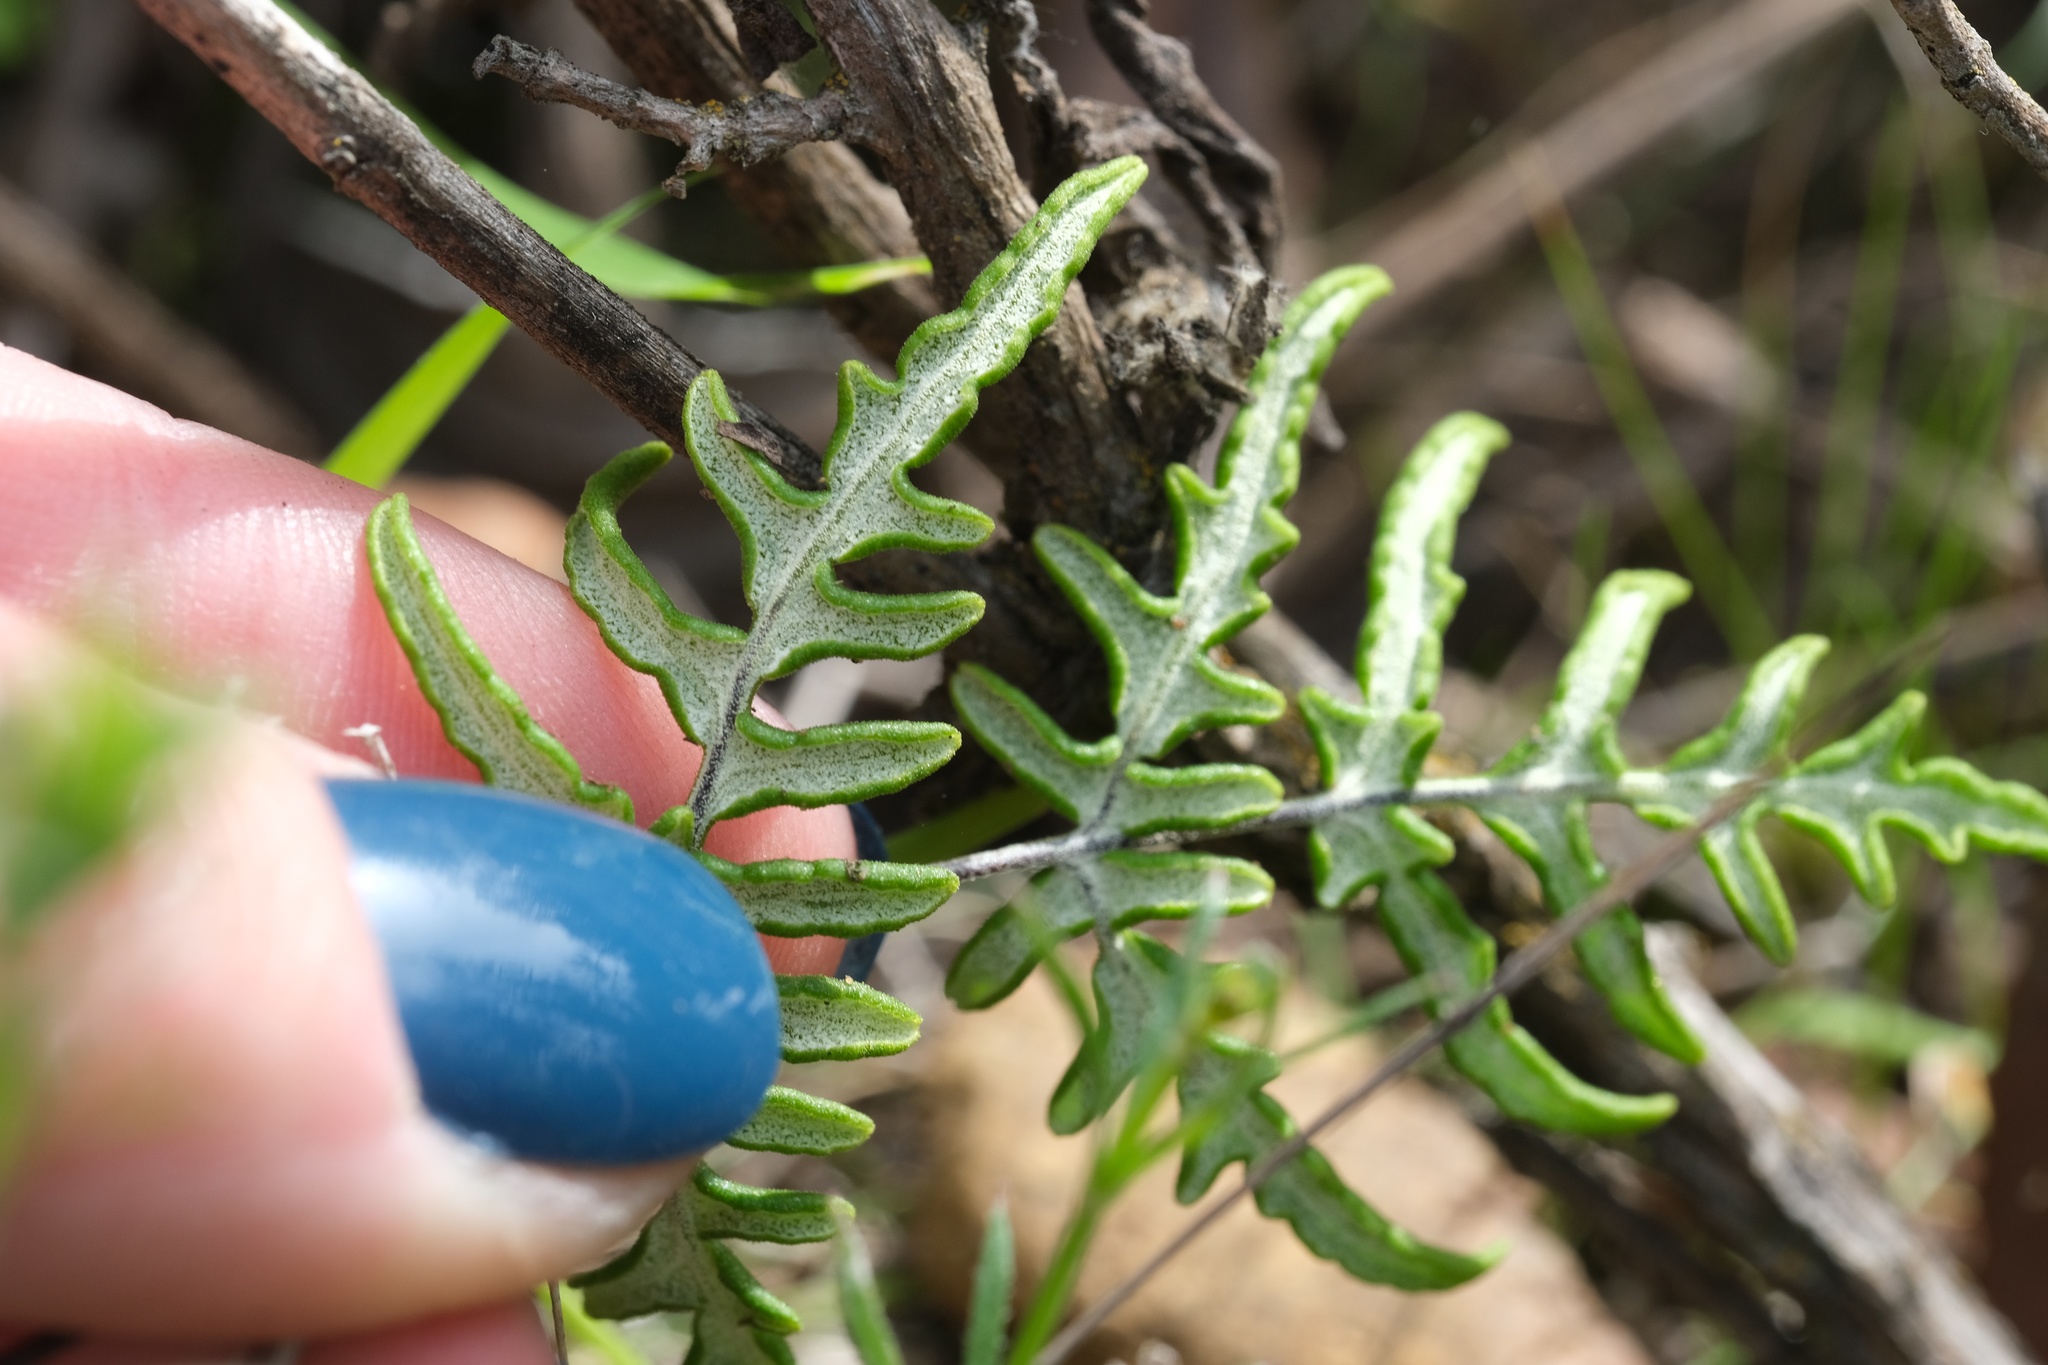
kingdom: Plantae
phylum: Tracheophyta
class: Polypodiopsida
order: Polypodiales
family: Pteridaceae
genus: Pentagramma
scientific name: Pentagramma viscosa
